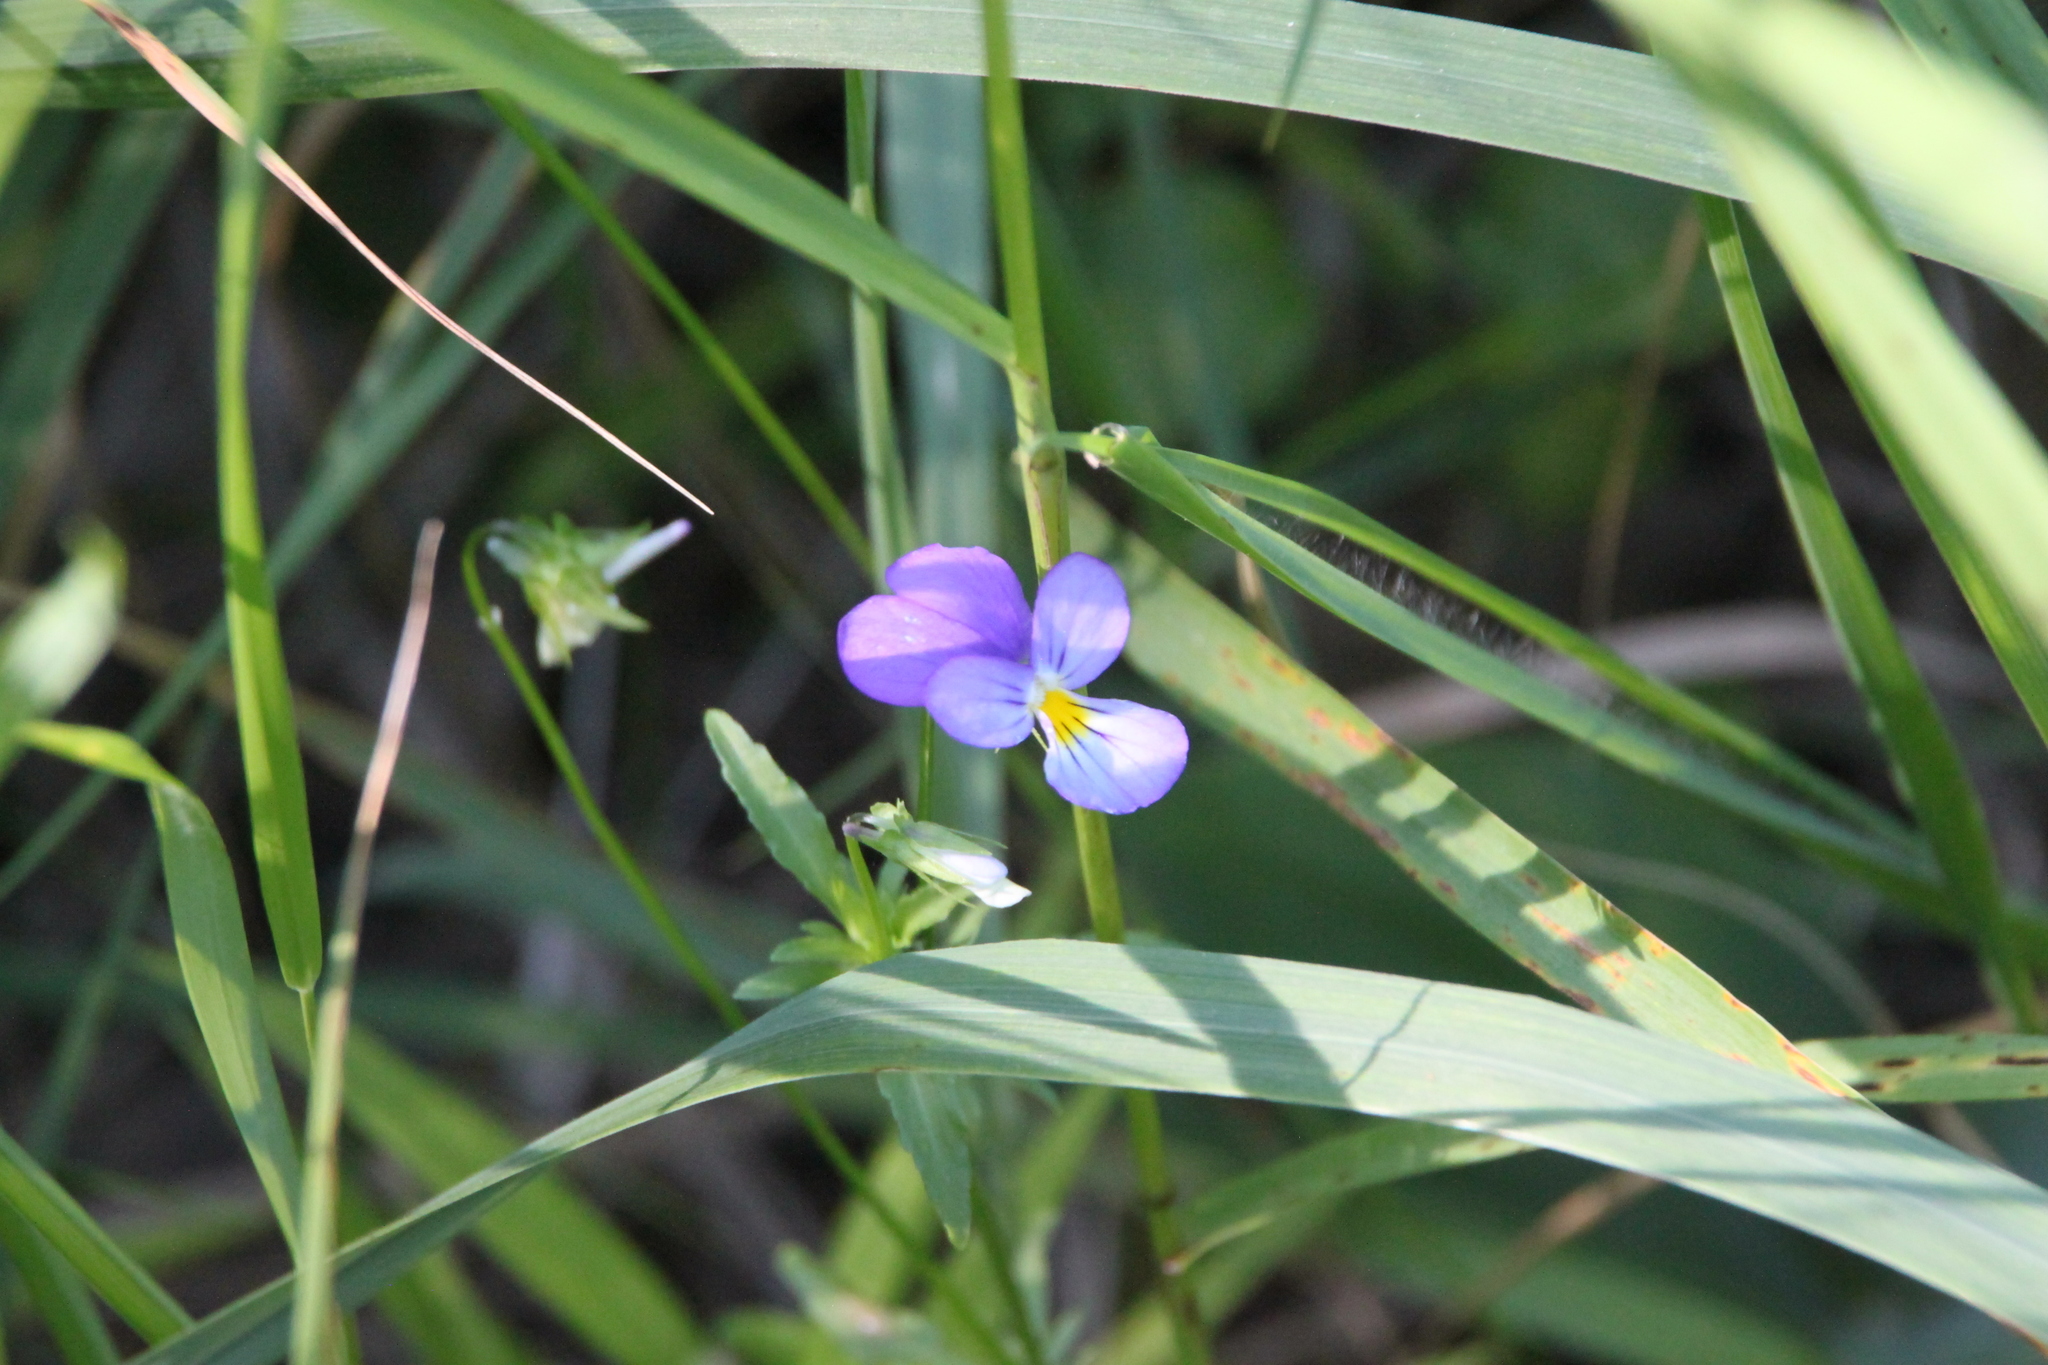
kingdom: Plantae
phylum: Tracheophyta
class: Magnoliopsida
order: Malpighiales
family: Violaceae
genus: Viola
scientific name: Viola tricolor
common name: Pansy
